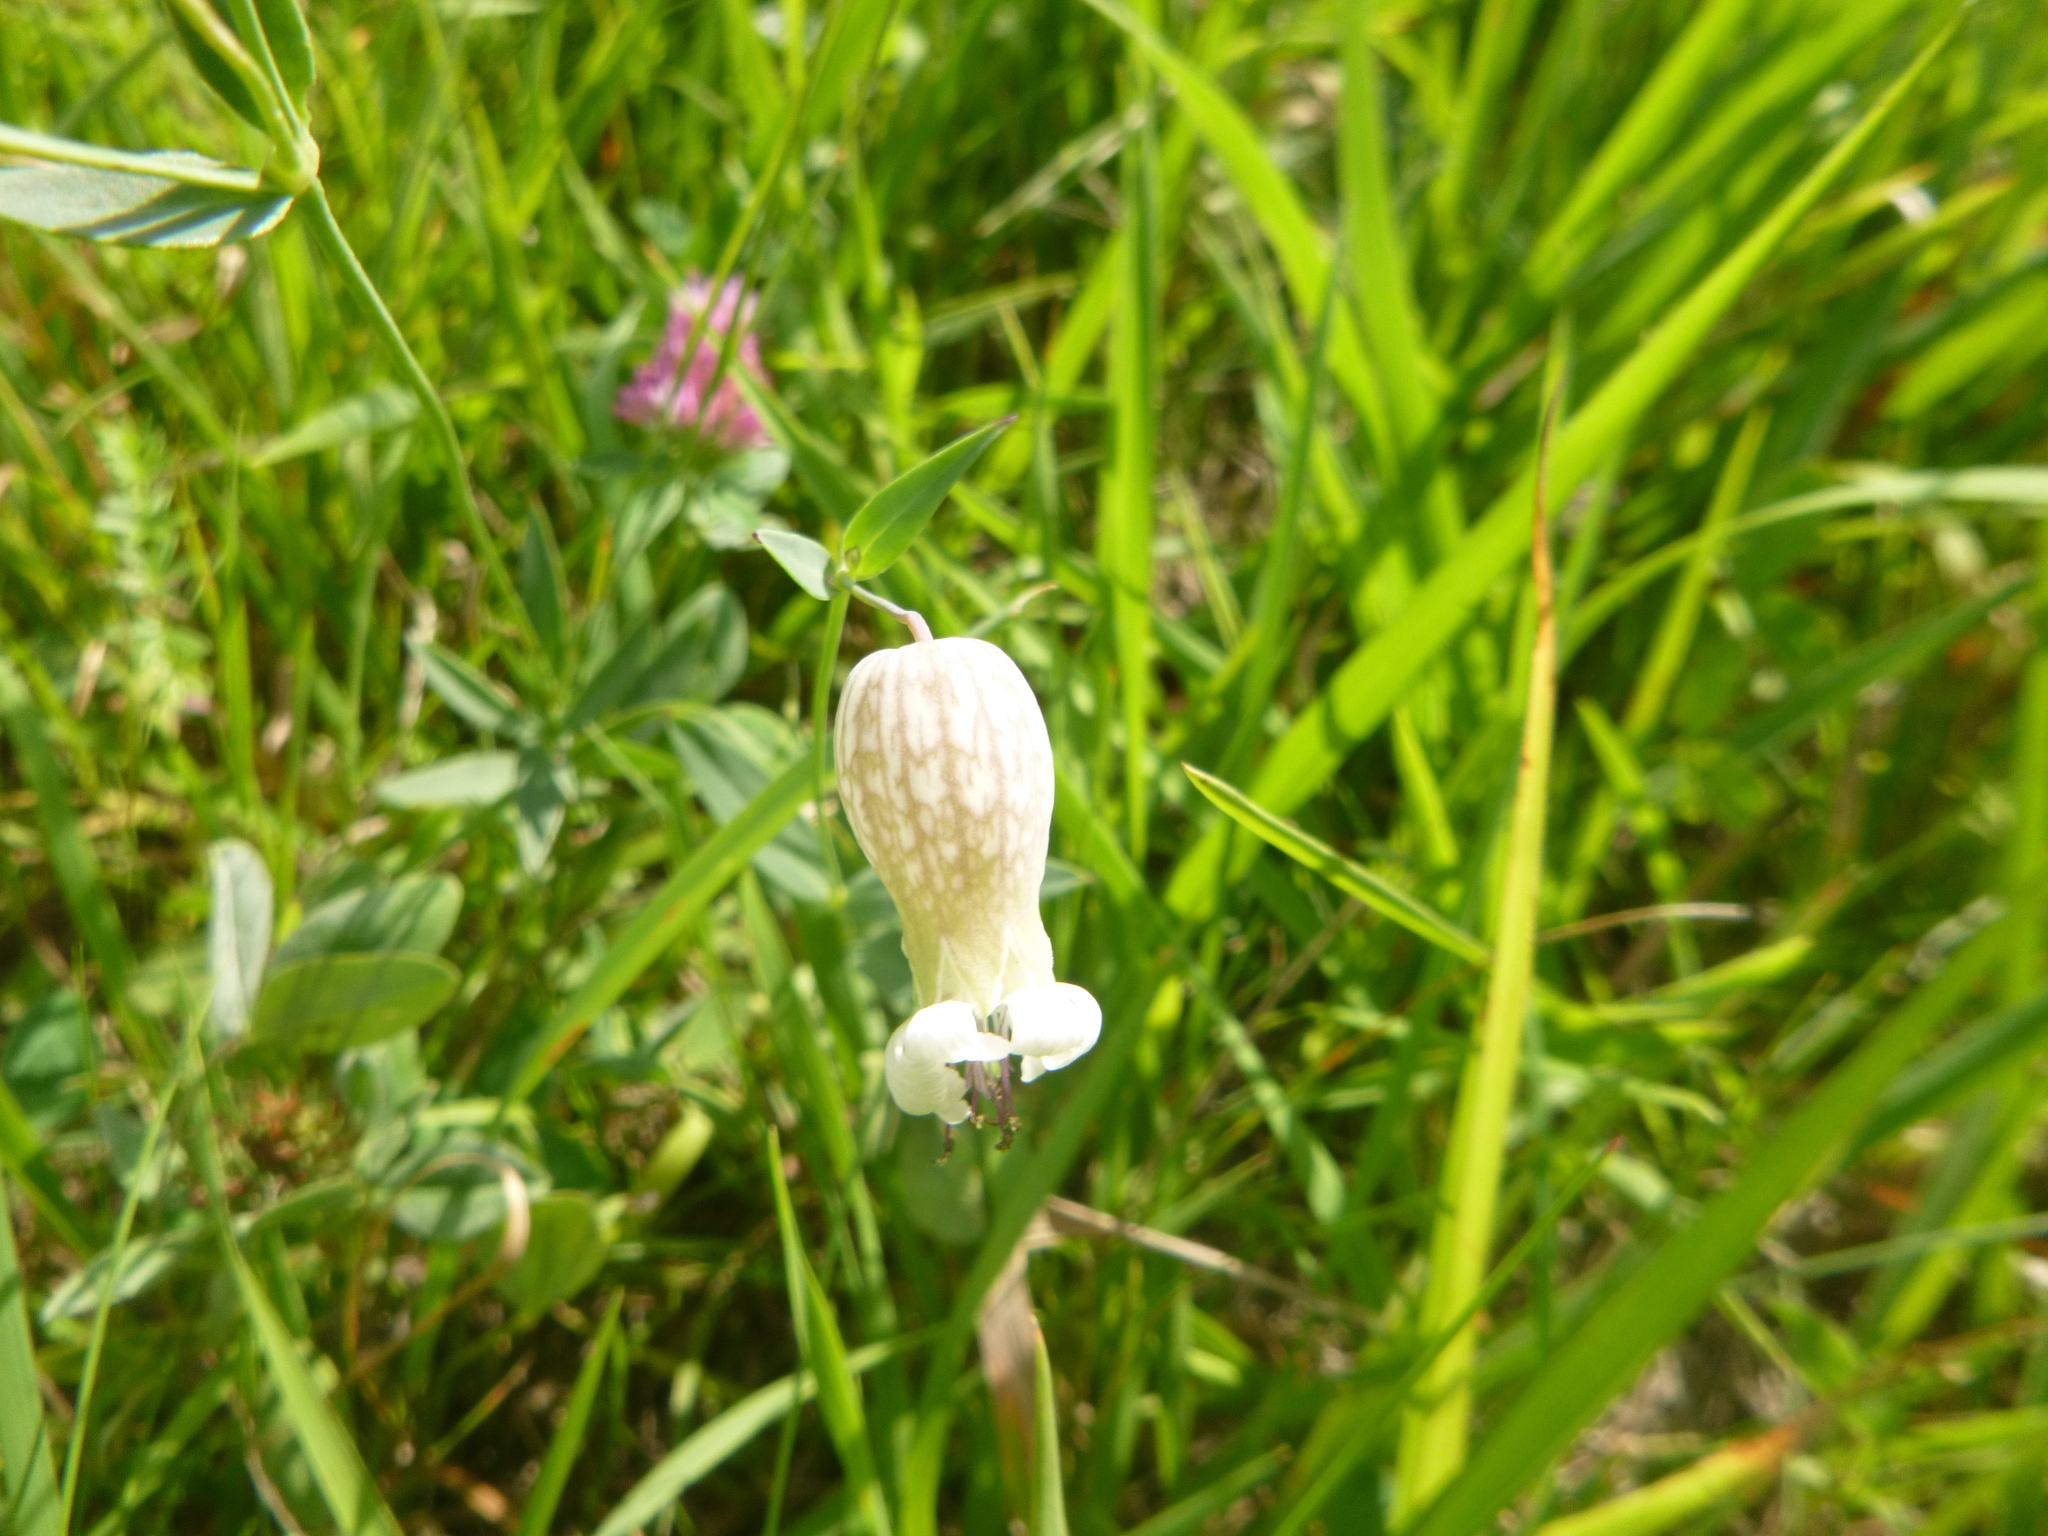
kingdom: Plantae
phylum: Tracheophyta
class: Magnoliopsida
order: Caryophyllales
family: Caryophyllaceae
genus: Silene
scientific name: Silene vulgaris
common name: Bladder campion
